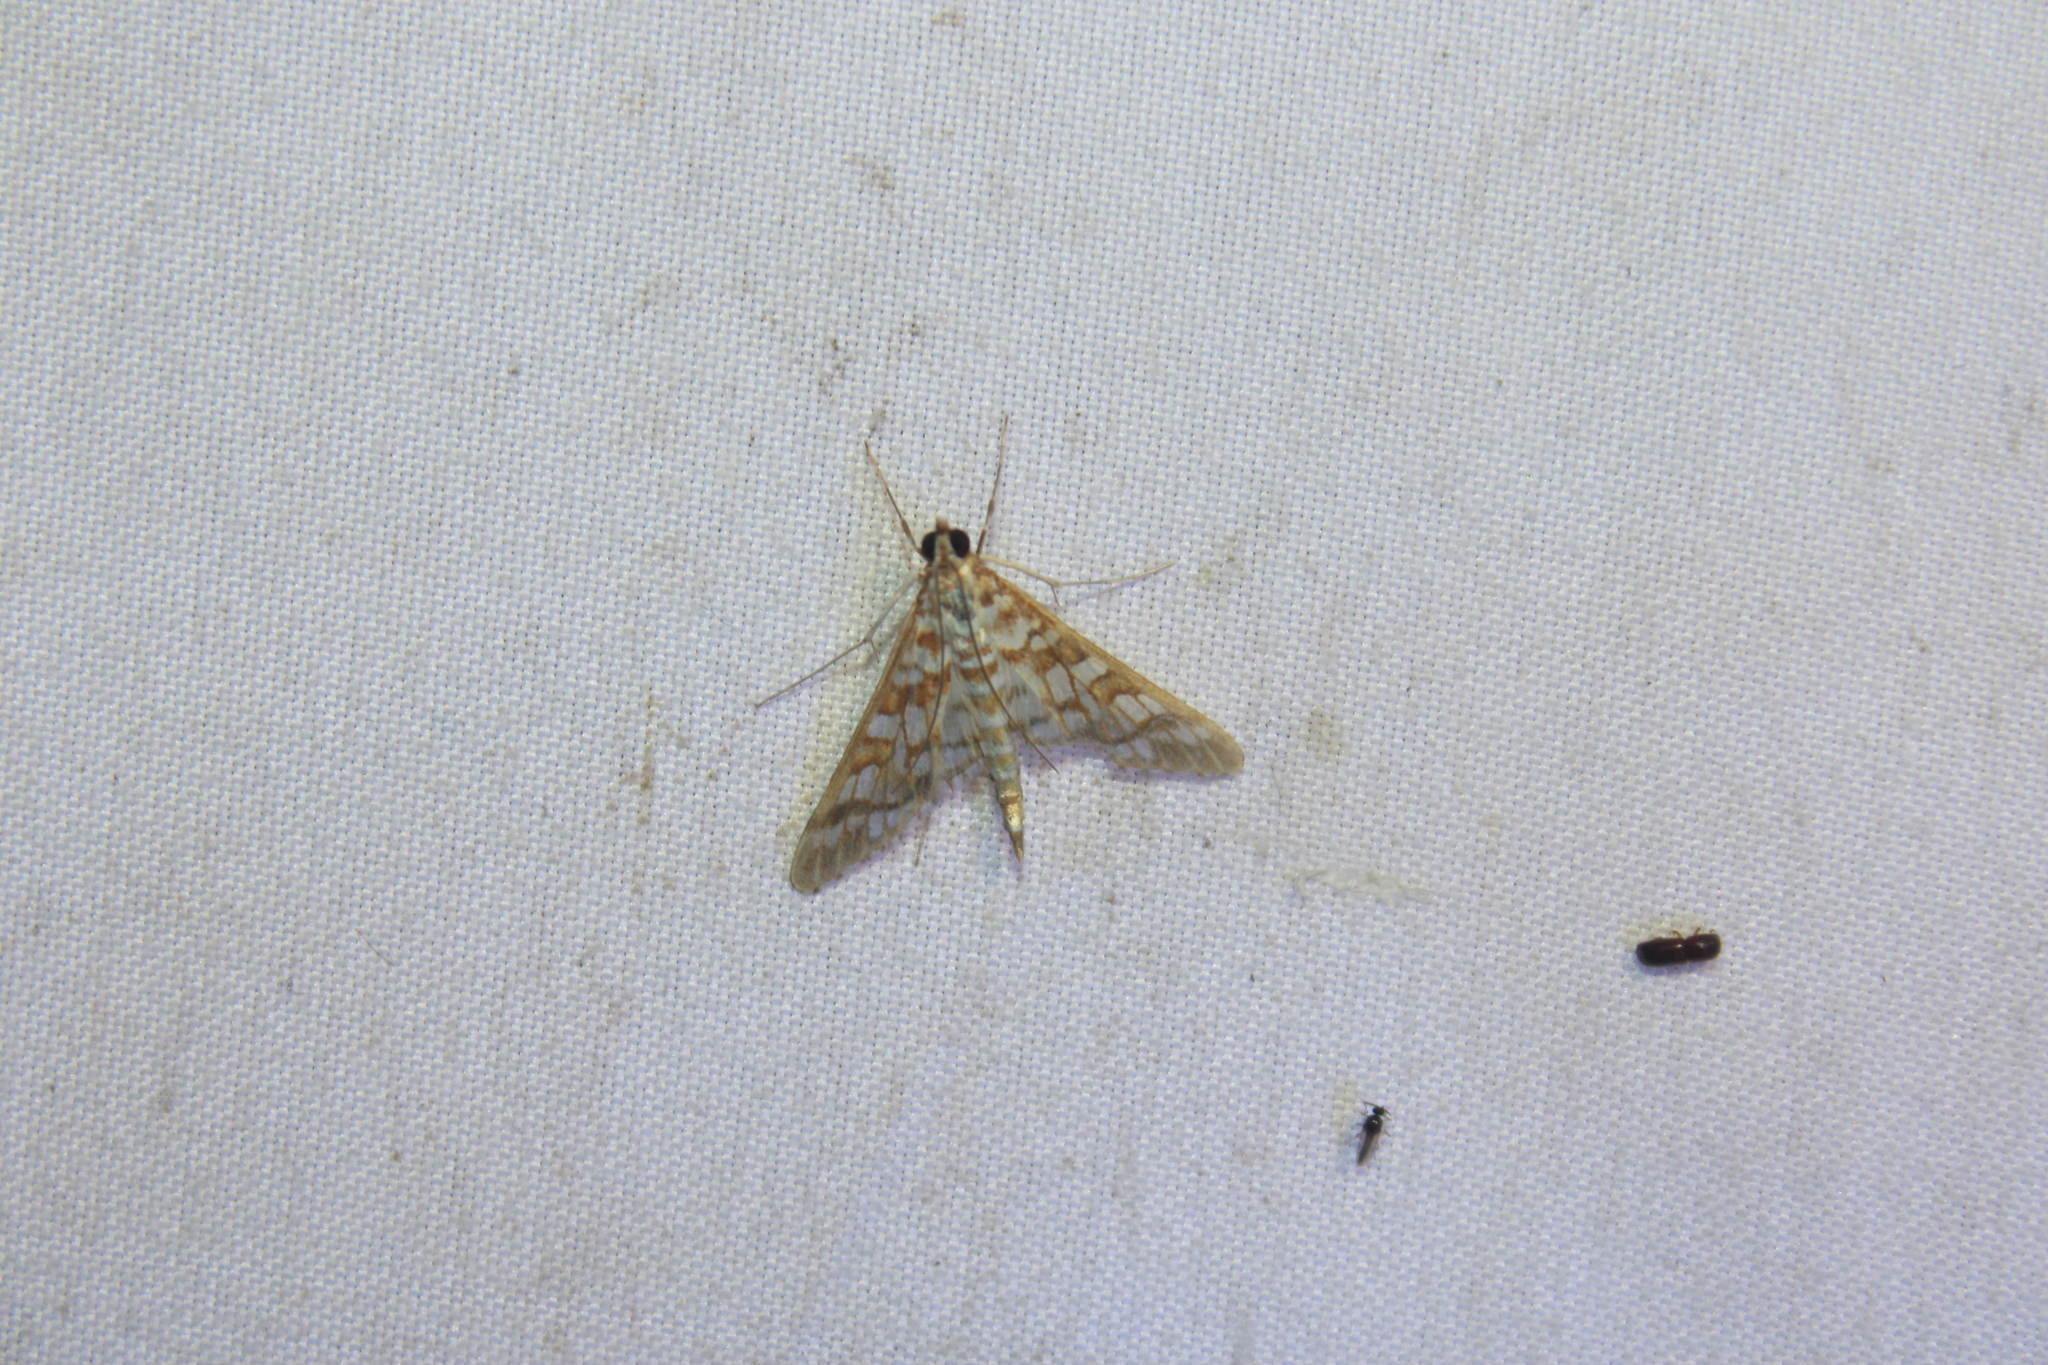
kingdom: Animalia
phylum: Arthropoda
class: Insecta
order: Lepidoptera
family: Crambidae
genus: Epipagis
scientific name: Epipagis fenestralis
